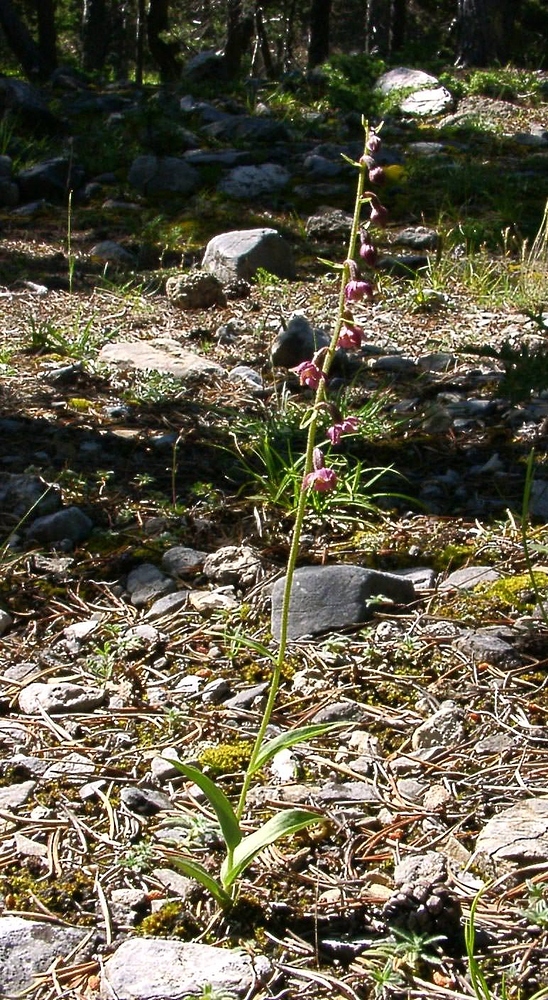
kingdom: Plantae
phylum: Tracheophyta
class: Liliopsida
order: Asparagales
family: Orchidaceae
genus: Epipactis
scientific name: Epipactis atrorubens
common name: Dark-red helleborine
